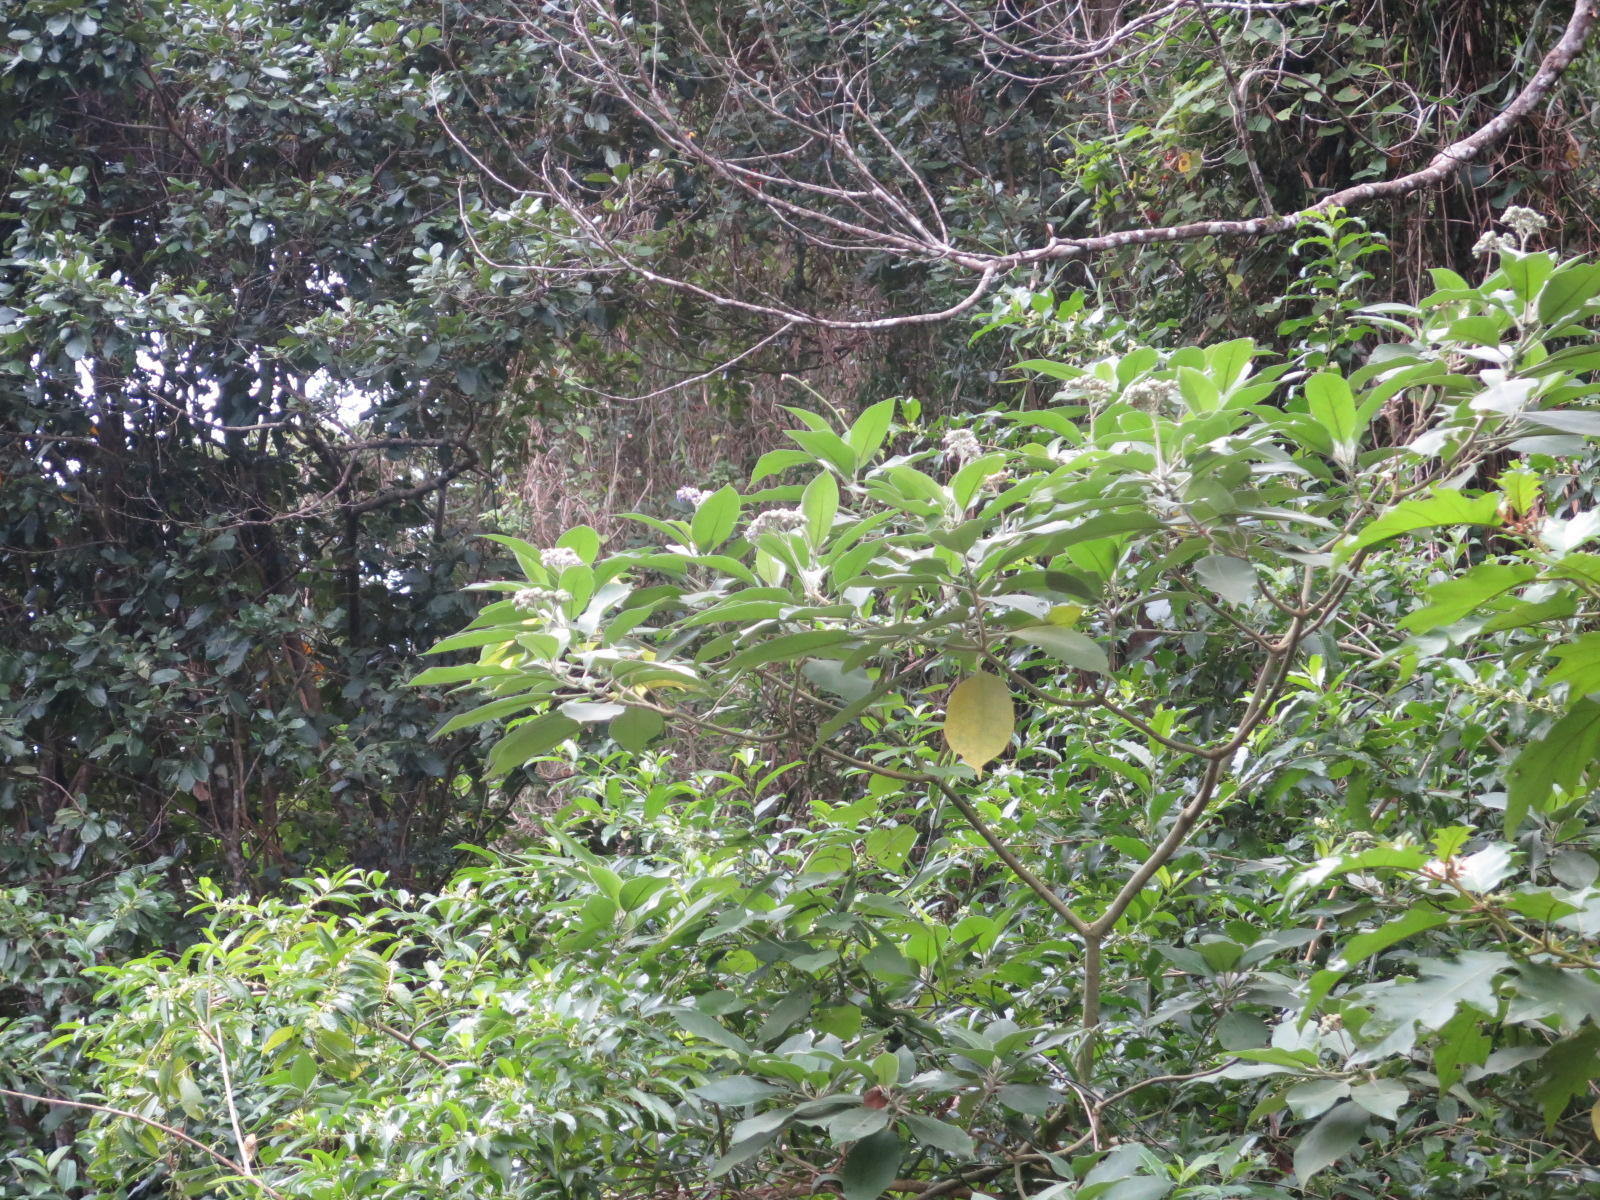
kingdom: Plantae
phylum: Tracheophyta
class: Magnoliopsida
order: Solanales
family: Solanaceae
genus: Solanum
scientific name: Solanum mauritianum
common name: Earleaf nightshade
